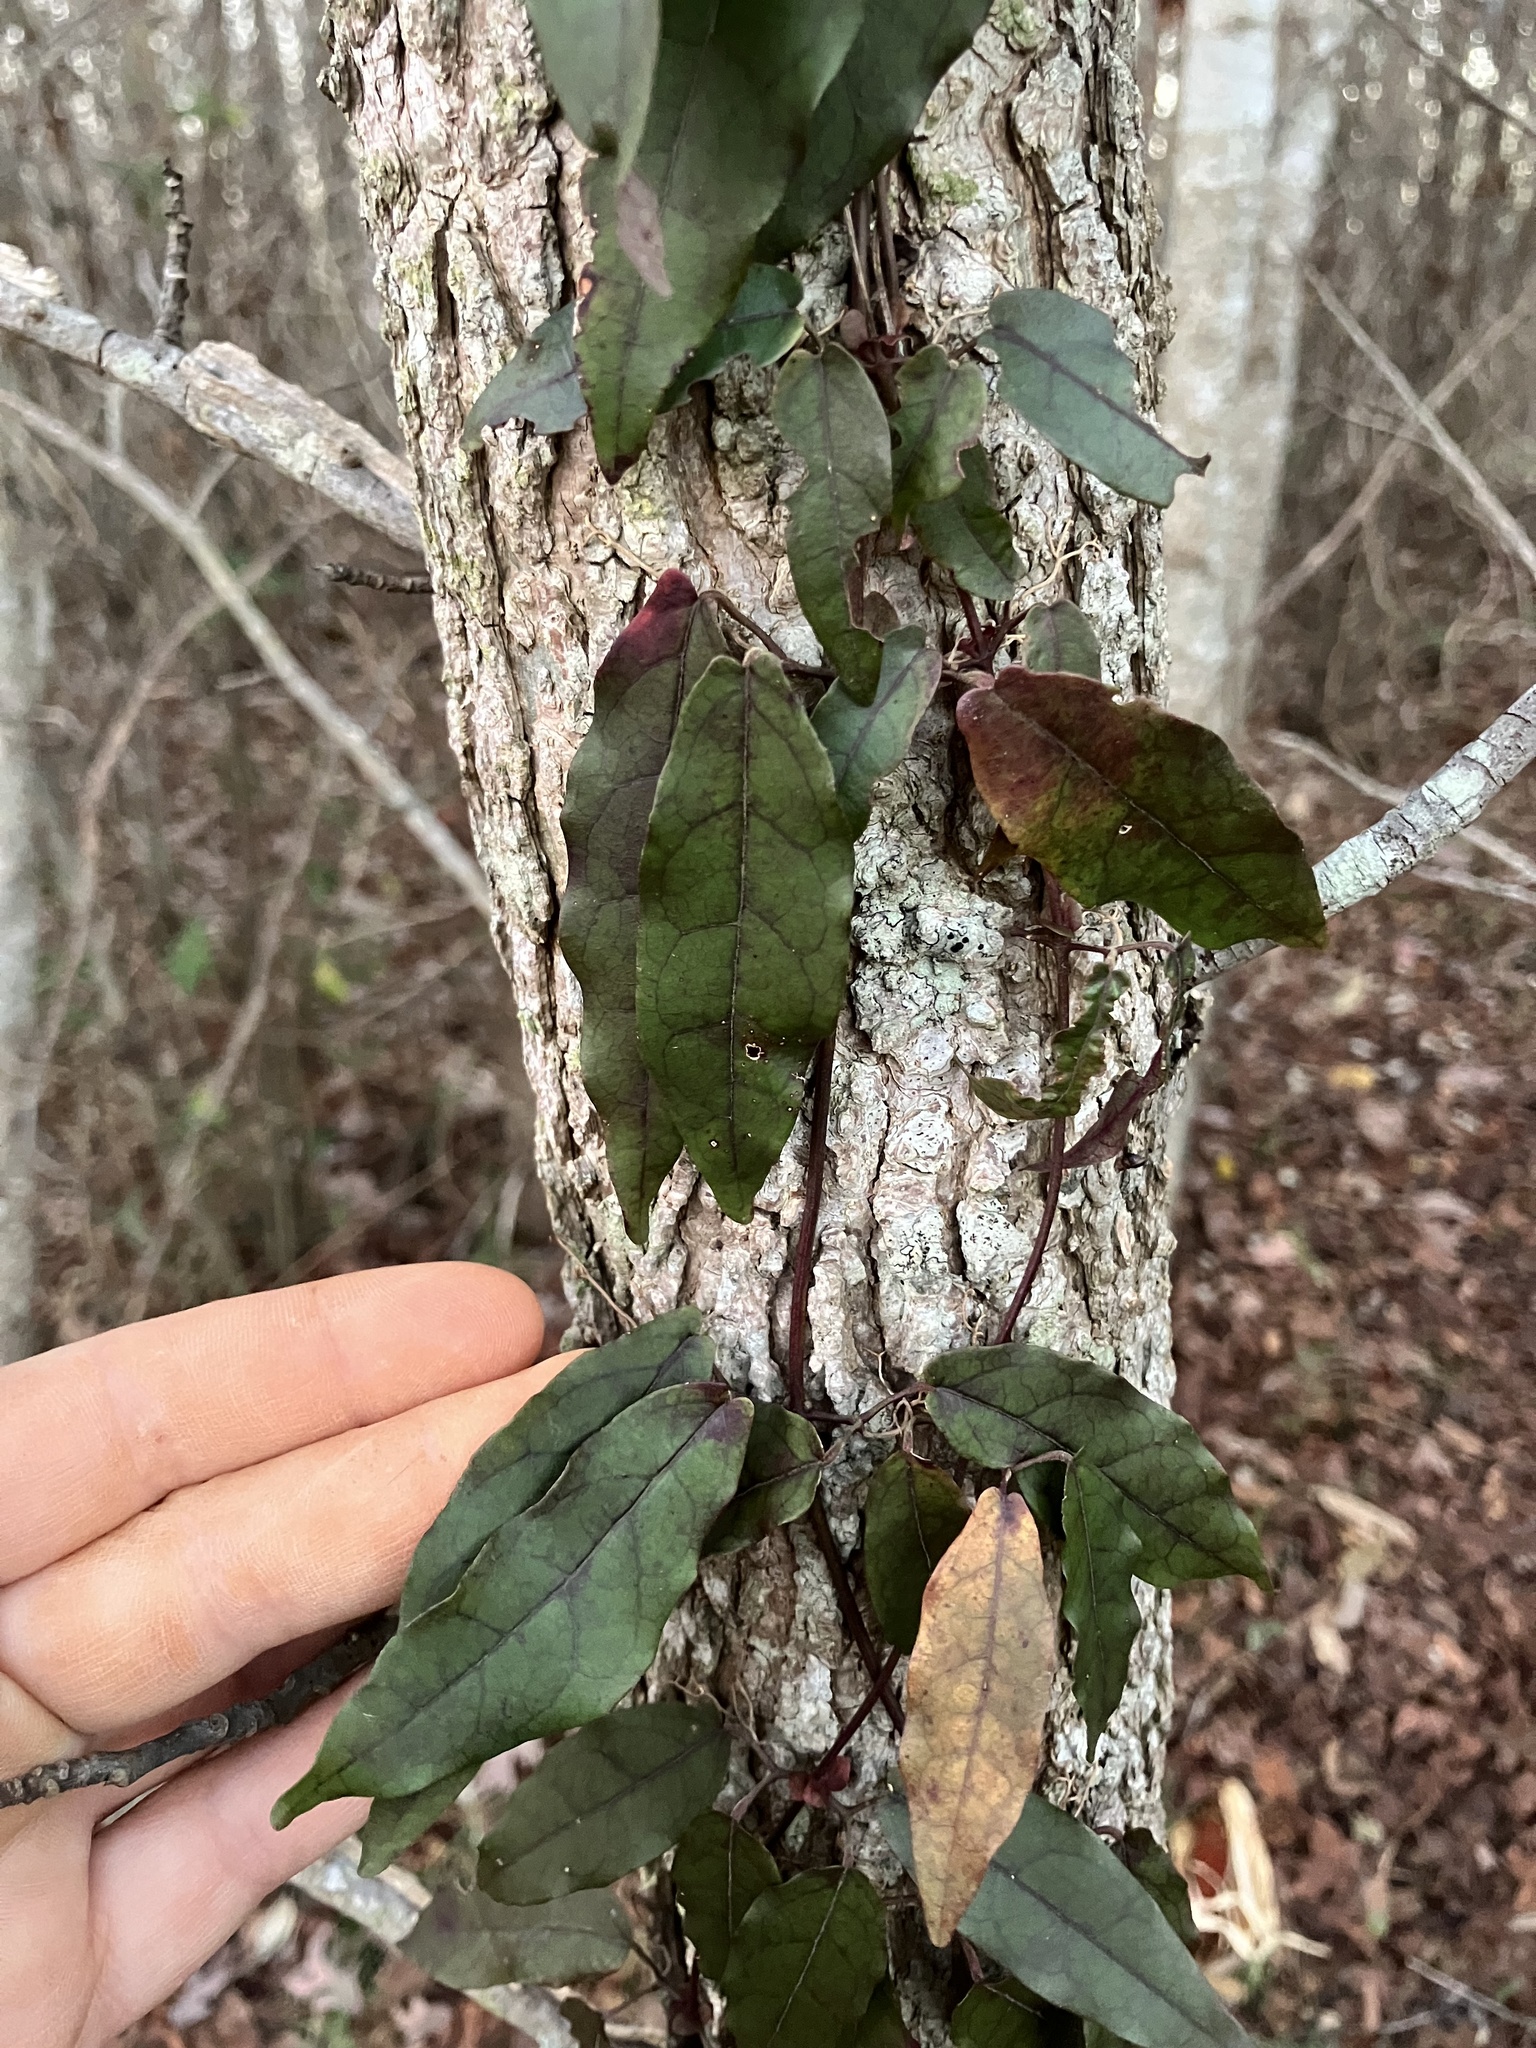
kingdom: Plantae
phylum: Tracheophyta
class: Magnoliopsida
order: Lamiales
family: Bignoniaceae
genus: Bignonia
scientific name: Bignonia capreolata
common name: Crossvine
